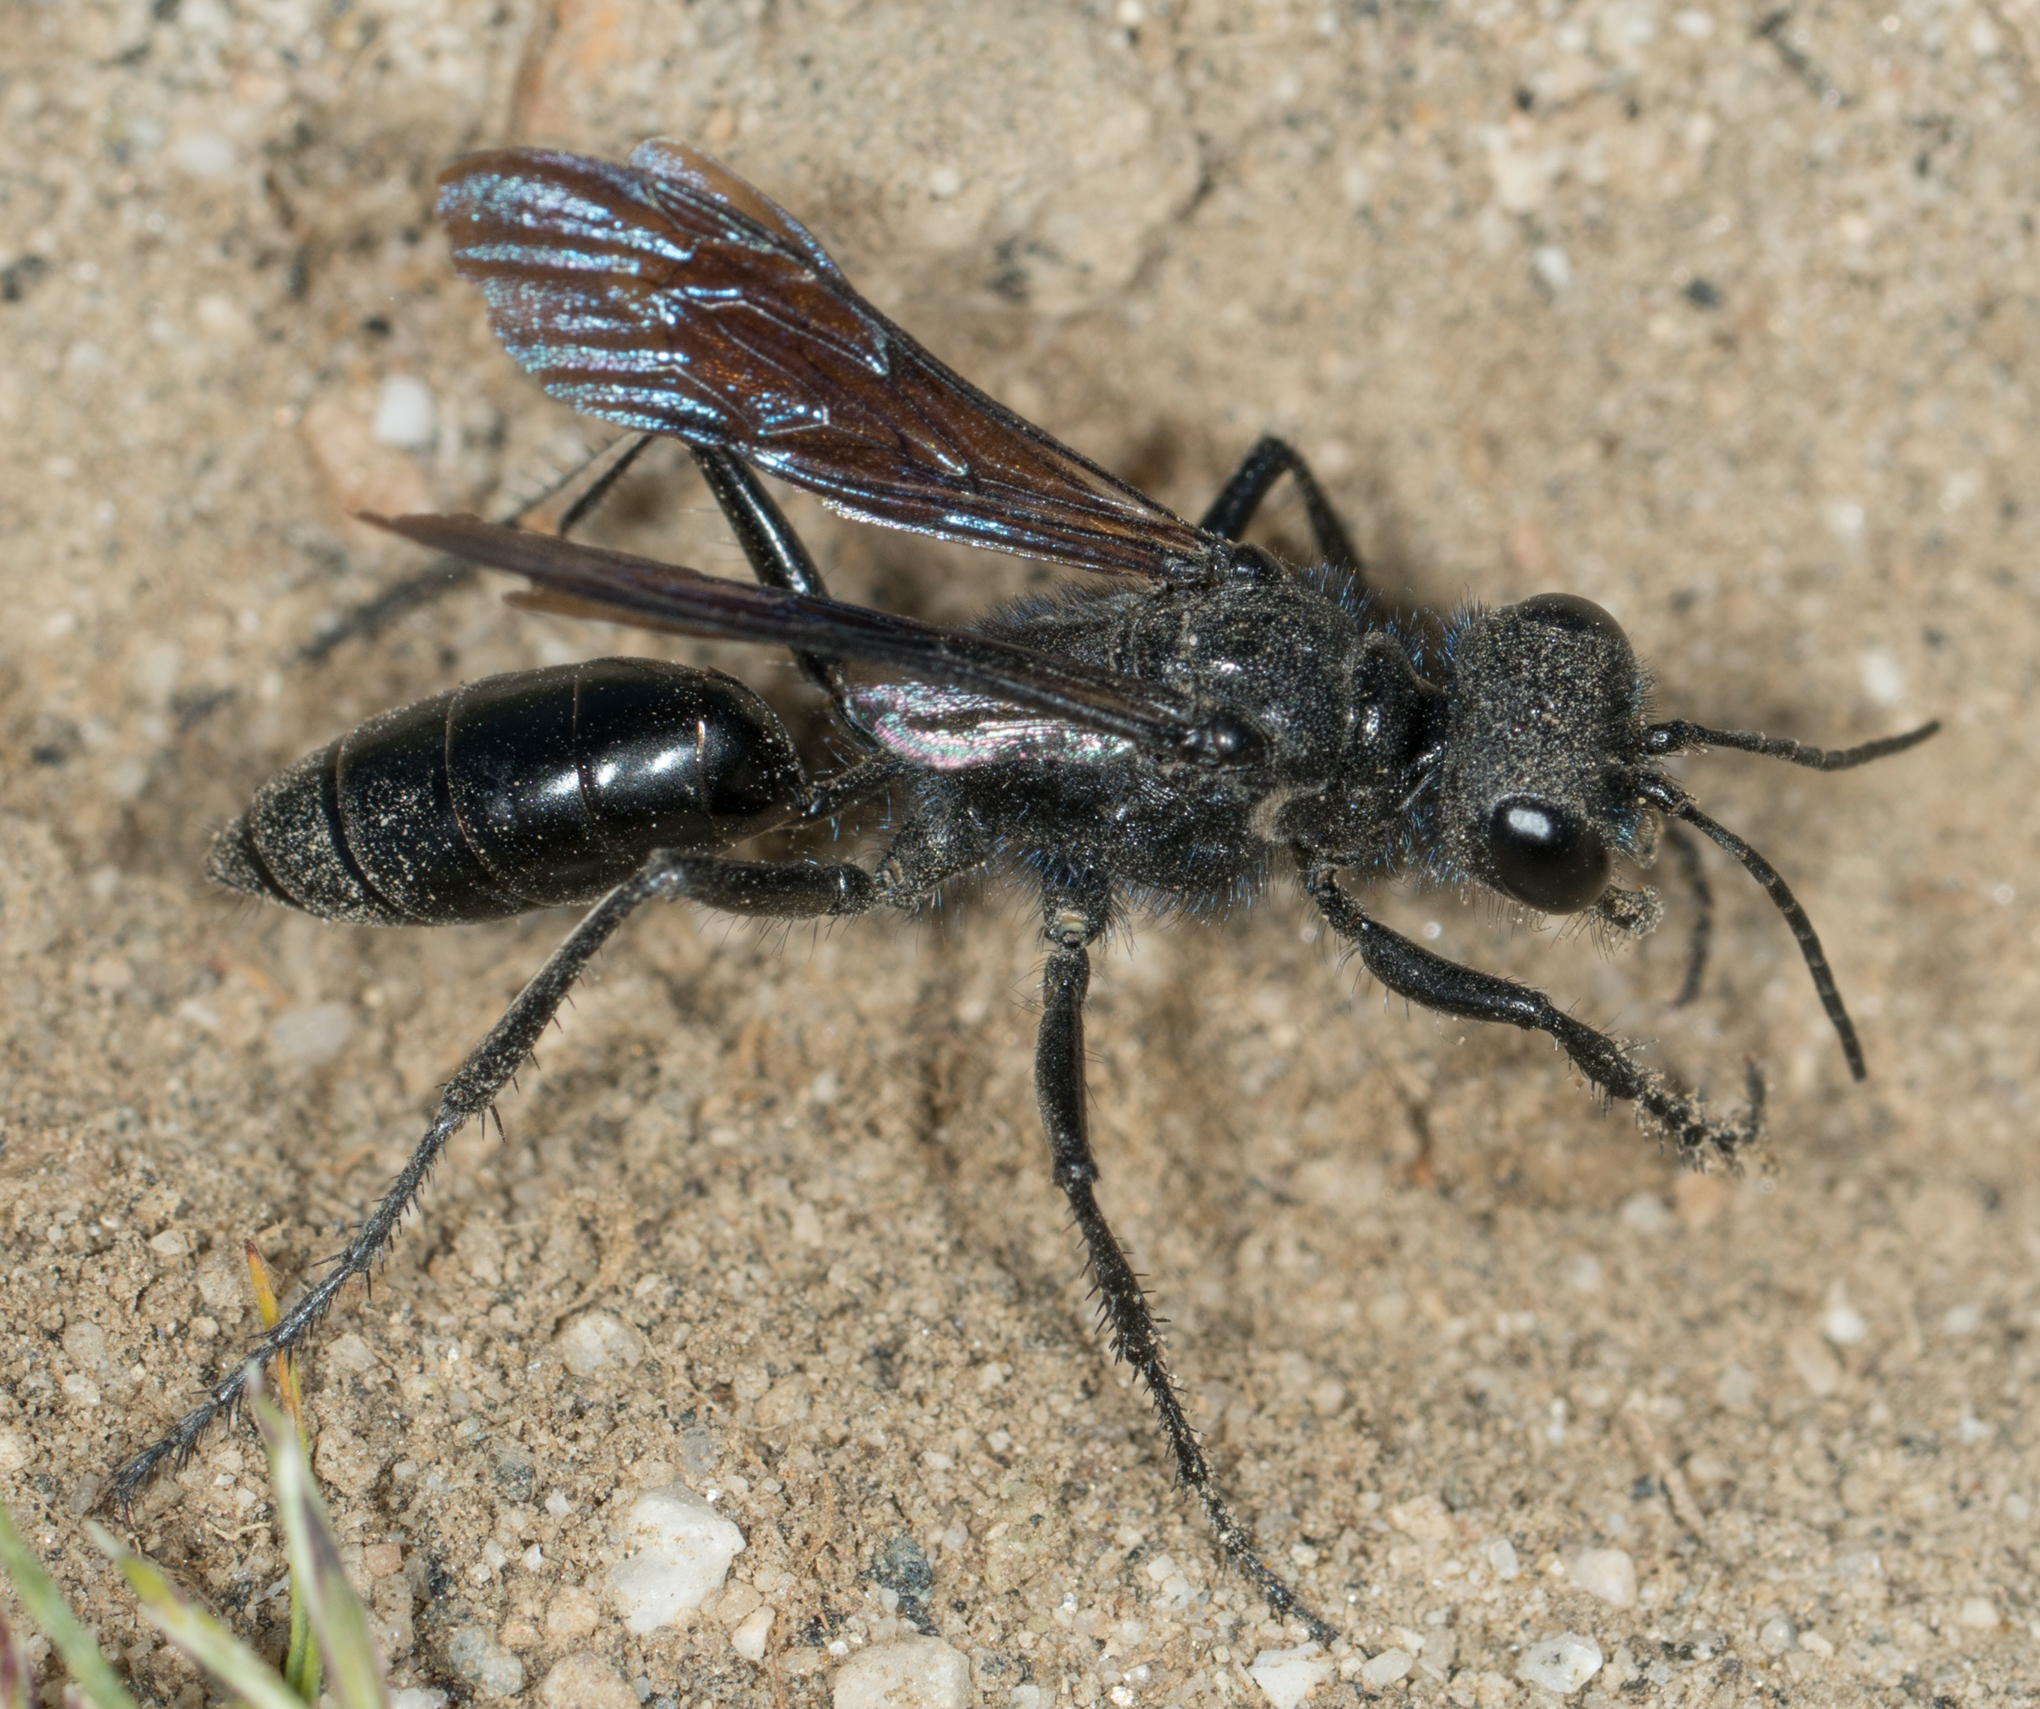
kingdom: Animalia
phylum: Arthropoda
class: Insecta
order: Hymenoptera
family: Sphecidae
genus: Podalonia
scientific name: Podalonia
